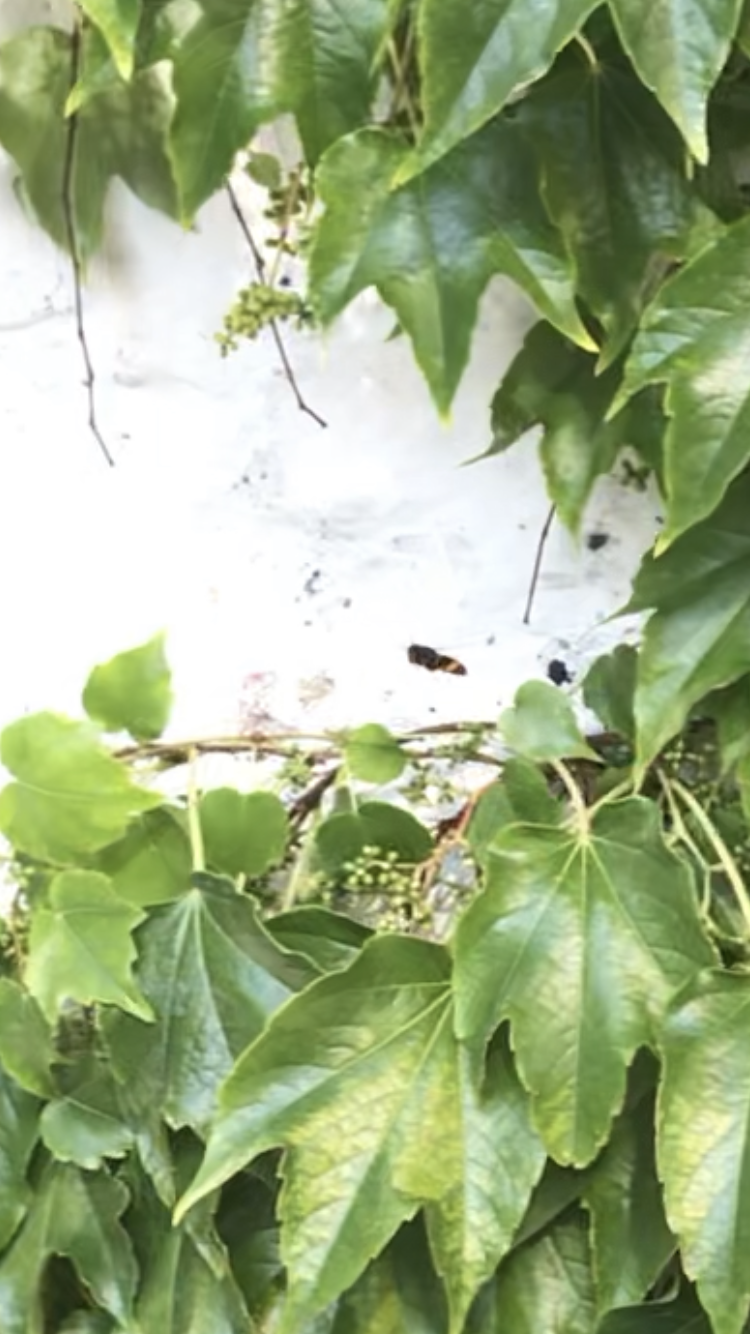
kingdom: Animalia
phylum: Arthropoda
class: Insecta
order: Hymenoptera
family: Vespidae
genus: Vespa
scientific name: Vespa velutina
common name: Asian hornet
